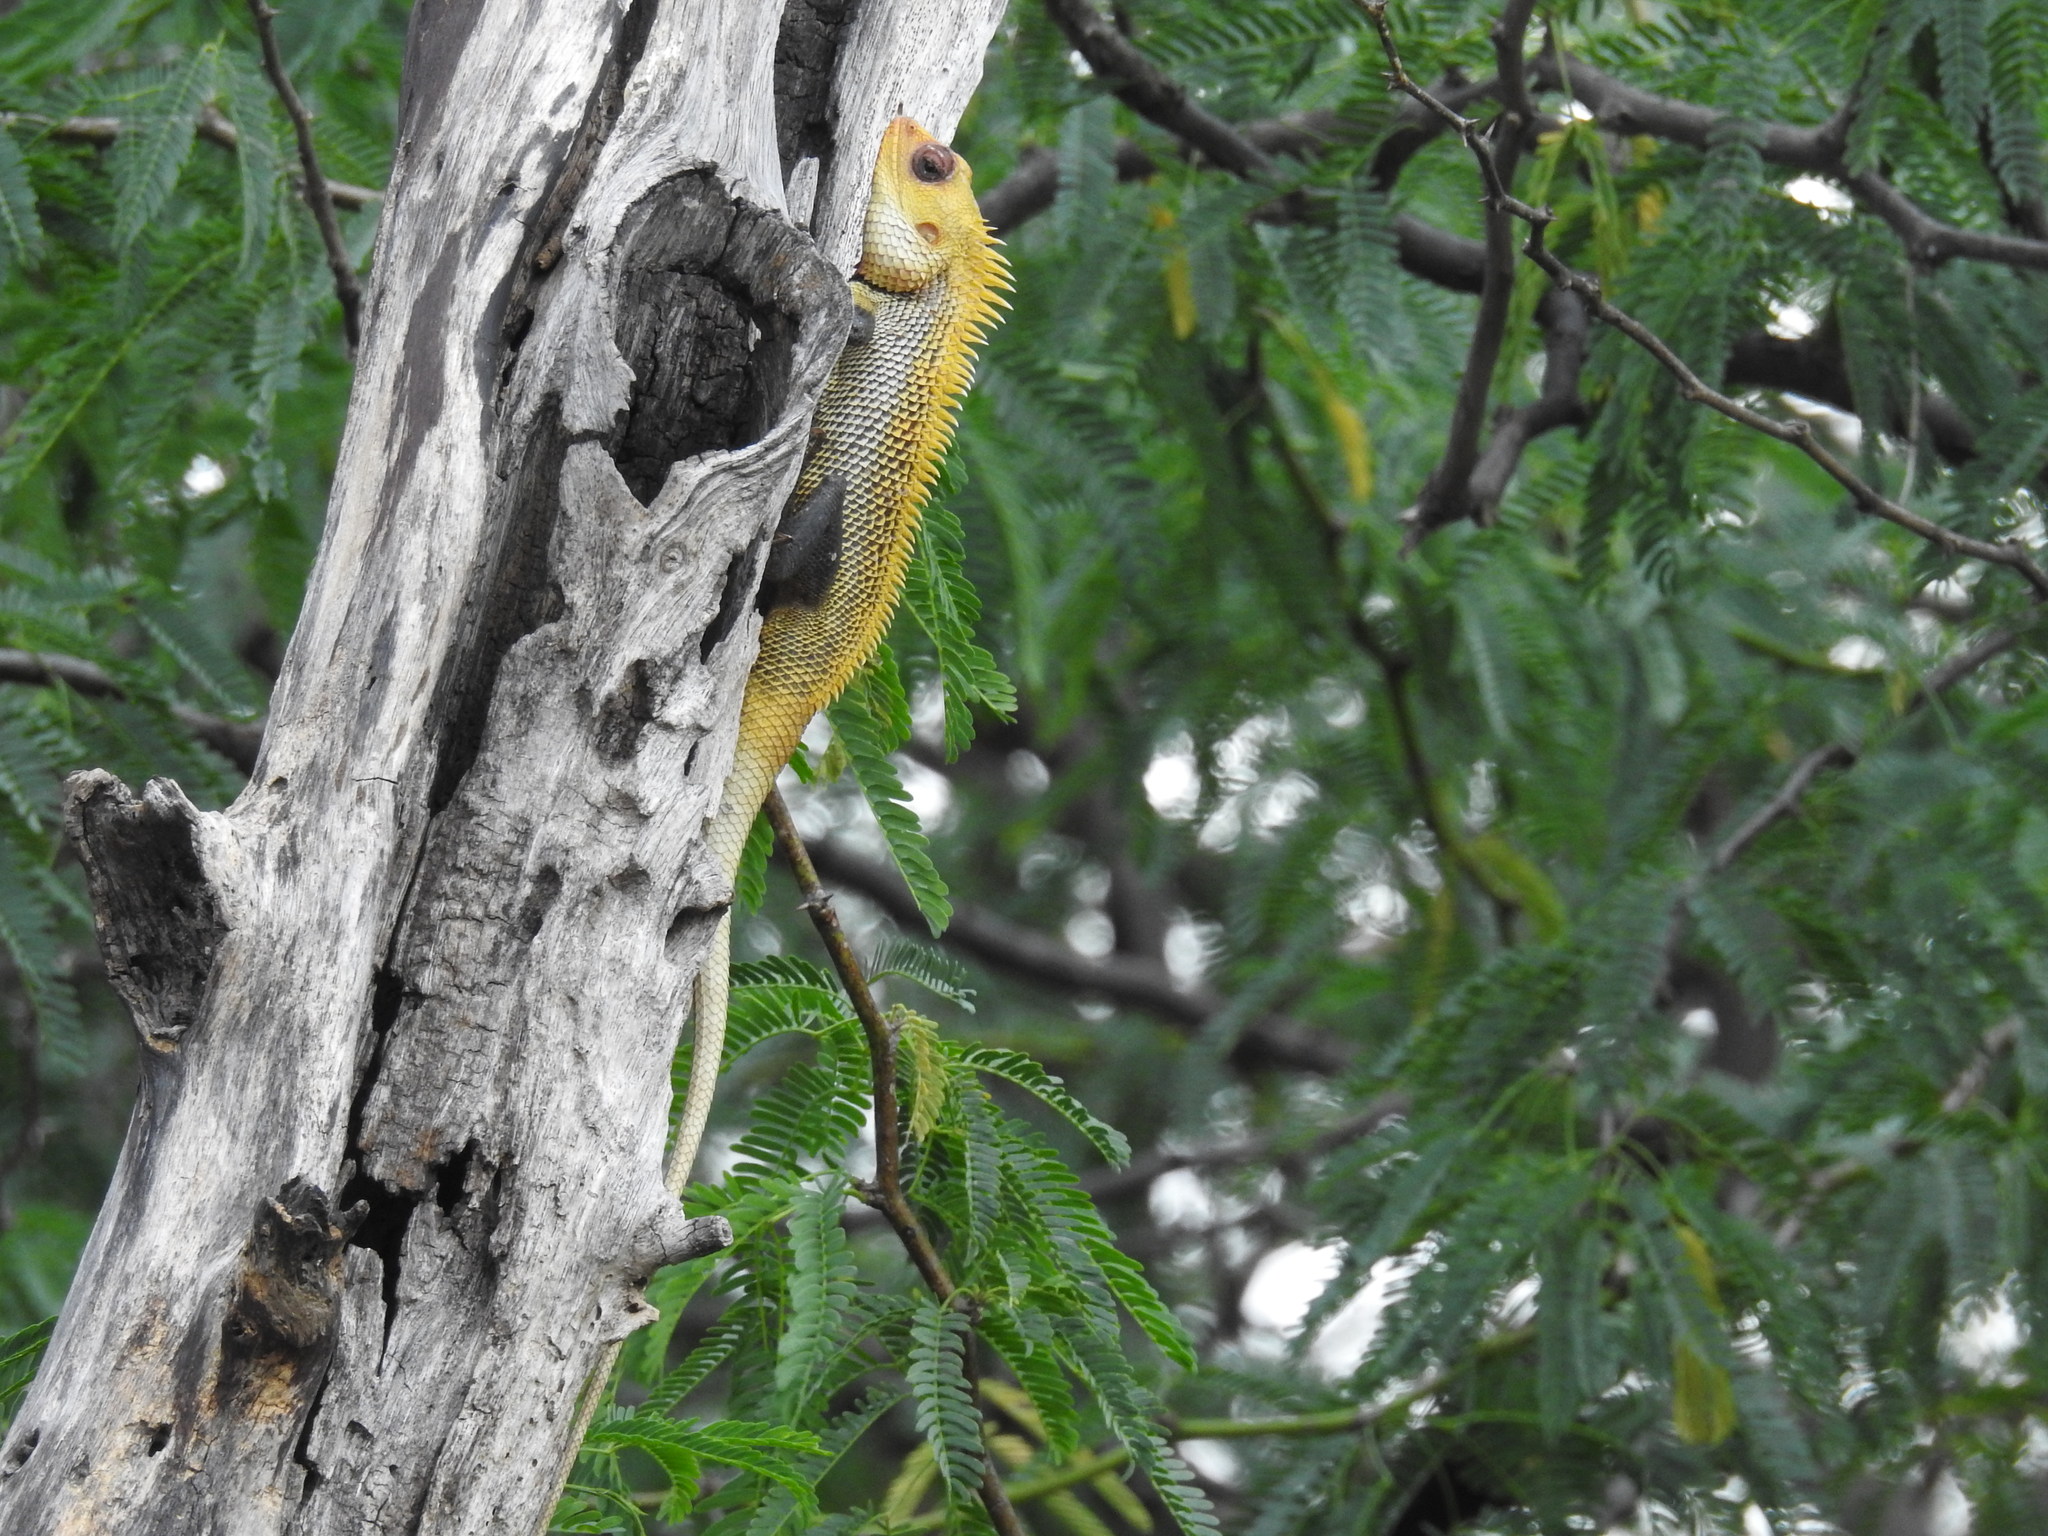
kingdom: Animalia
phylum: Chordata
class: Squamata
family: Agamidae
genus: Calotes
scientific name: Calotes versicolor
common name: Oriental garden lizard
